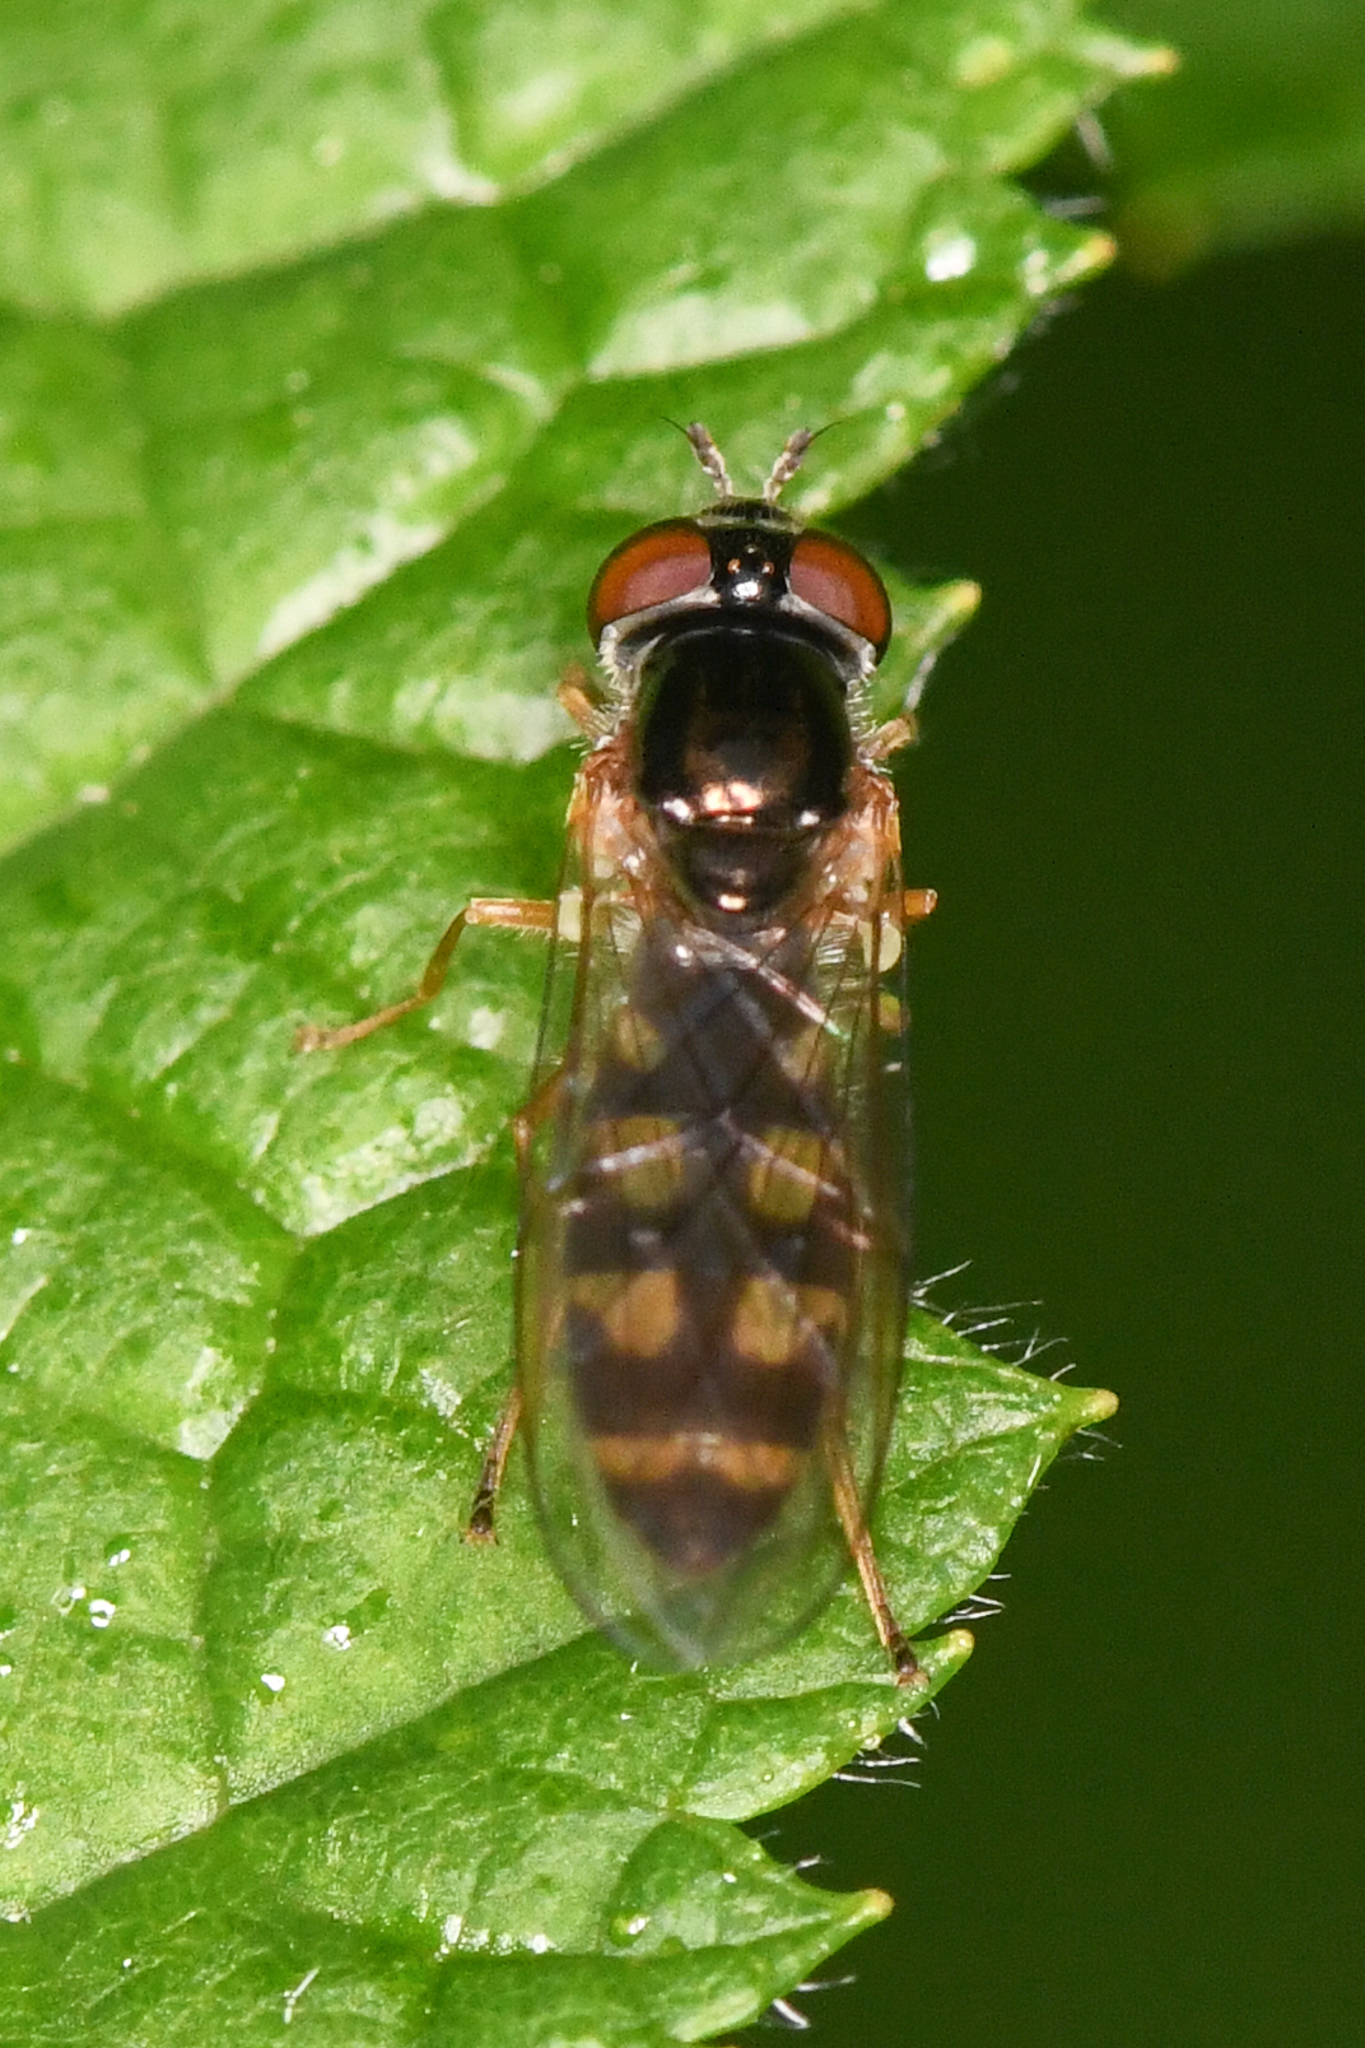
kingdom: Animalia
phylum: Arthropoda
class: Insecta
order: Diptera
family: Syrphidae
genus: Melanostoma
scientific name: Melanostoma mellina
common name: Hover fly
